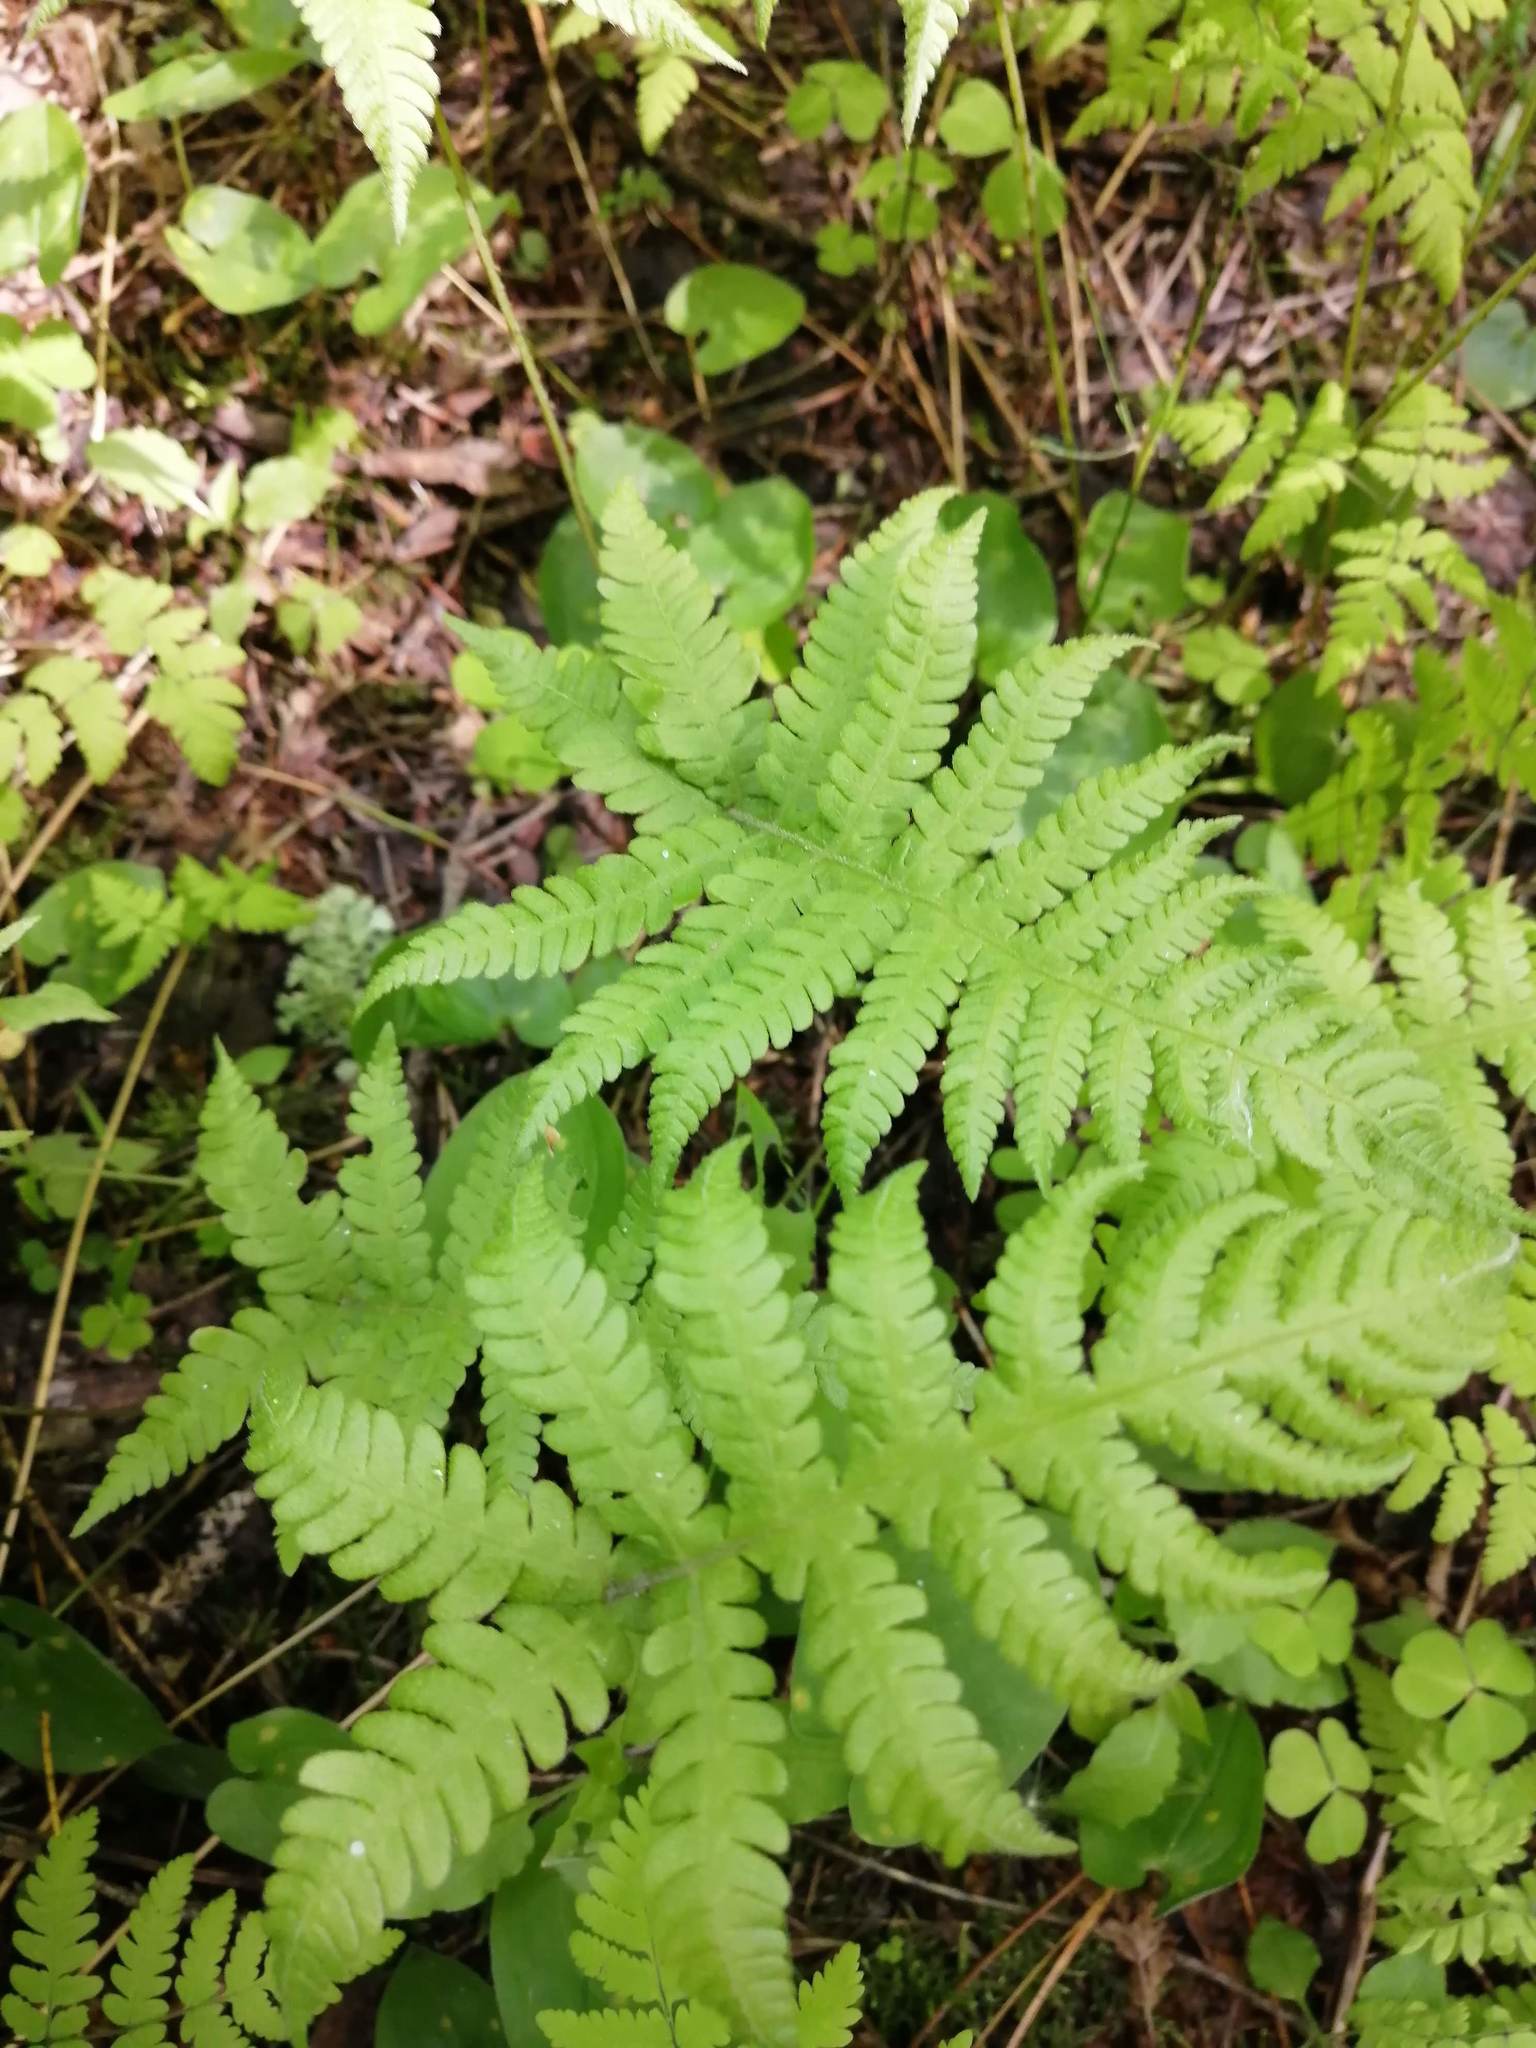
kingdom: Plantae
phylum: Tracheophyta
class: Polypodiopsida
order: Polypodiales
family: Thelypteridaceae
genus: Phegopteris
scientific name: Phegopteris connectilis
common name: Beech fern
